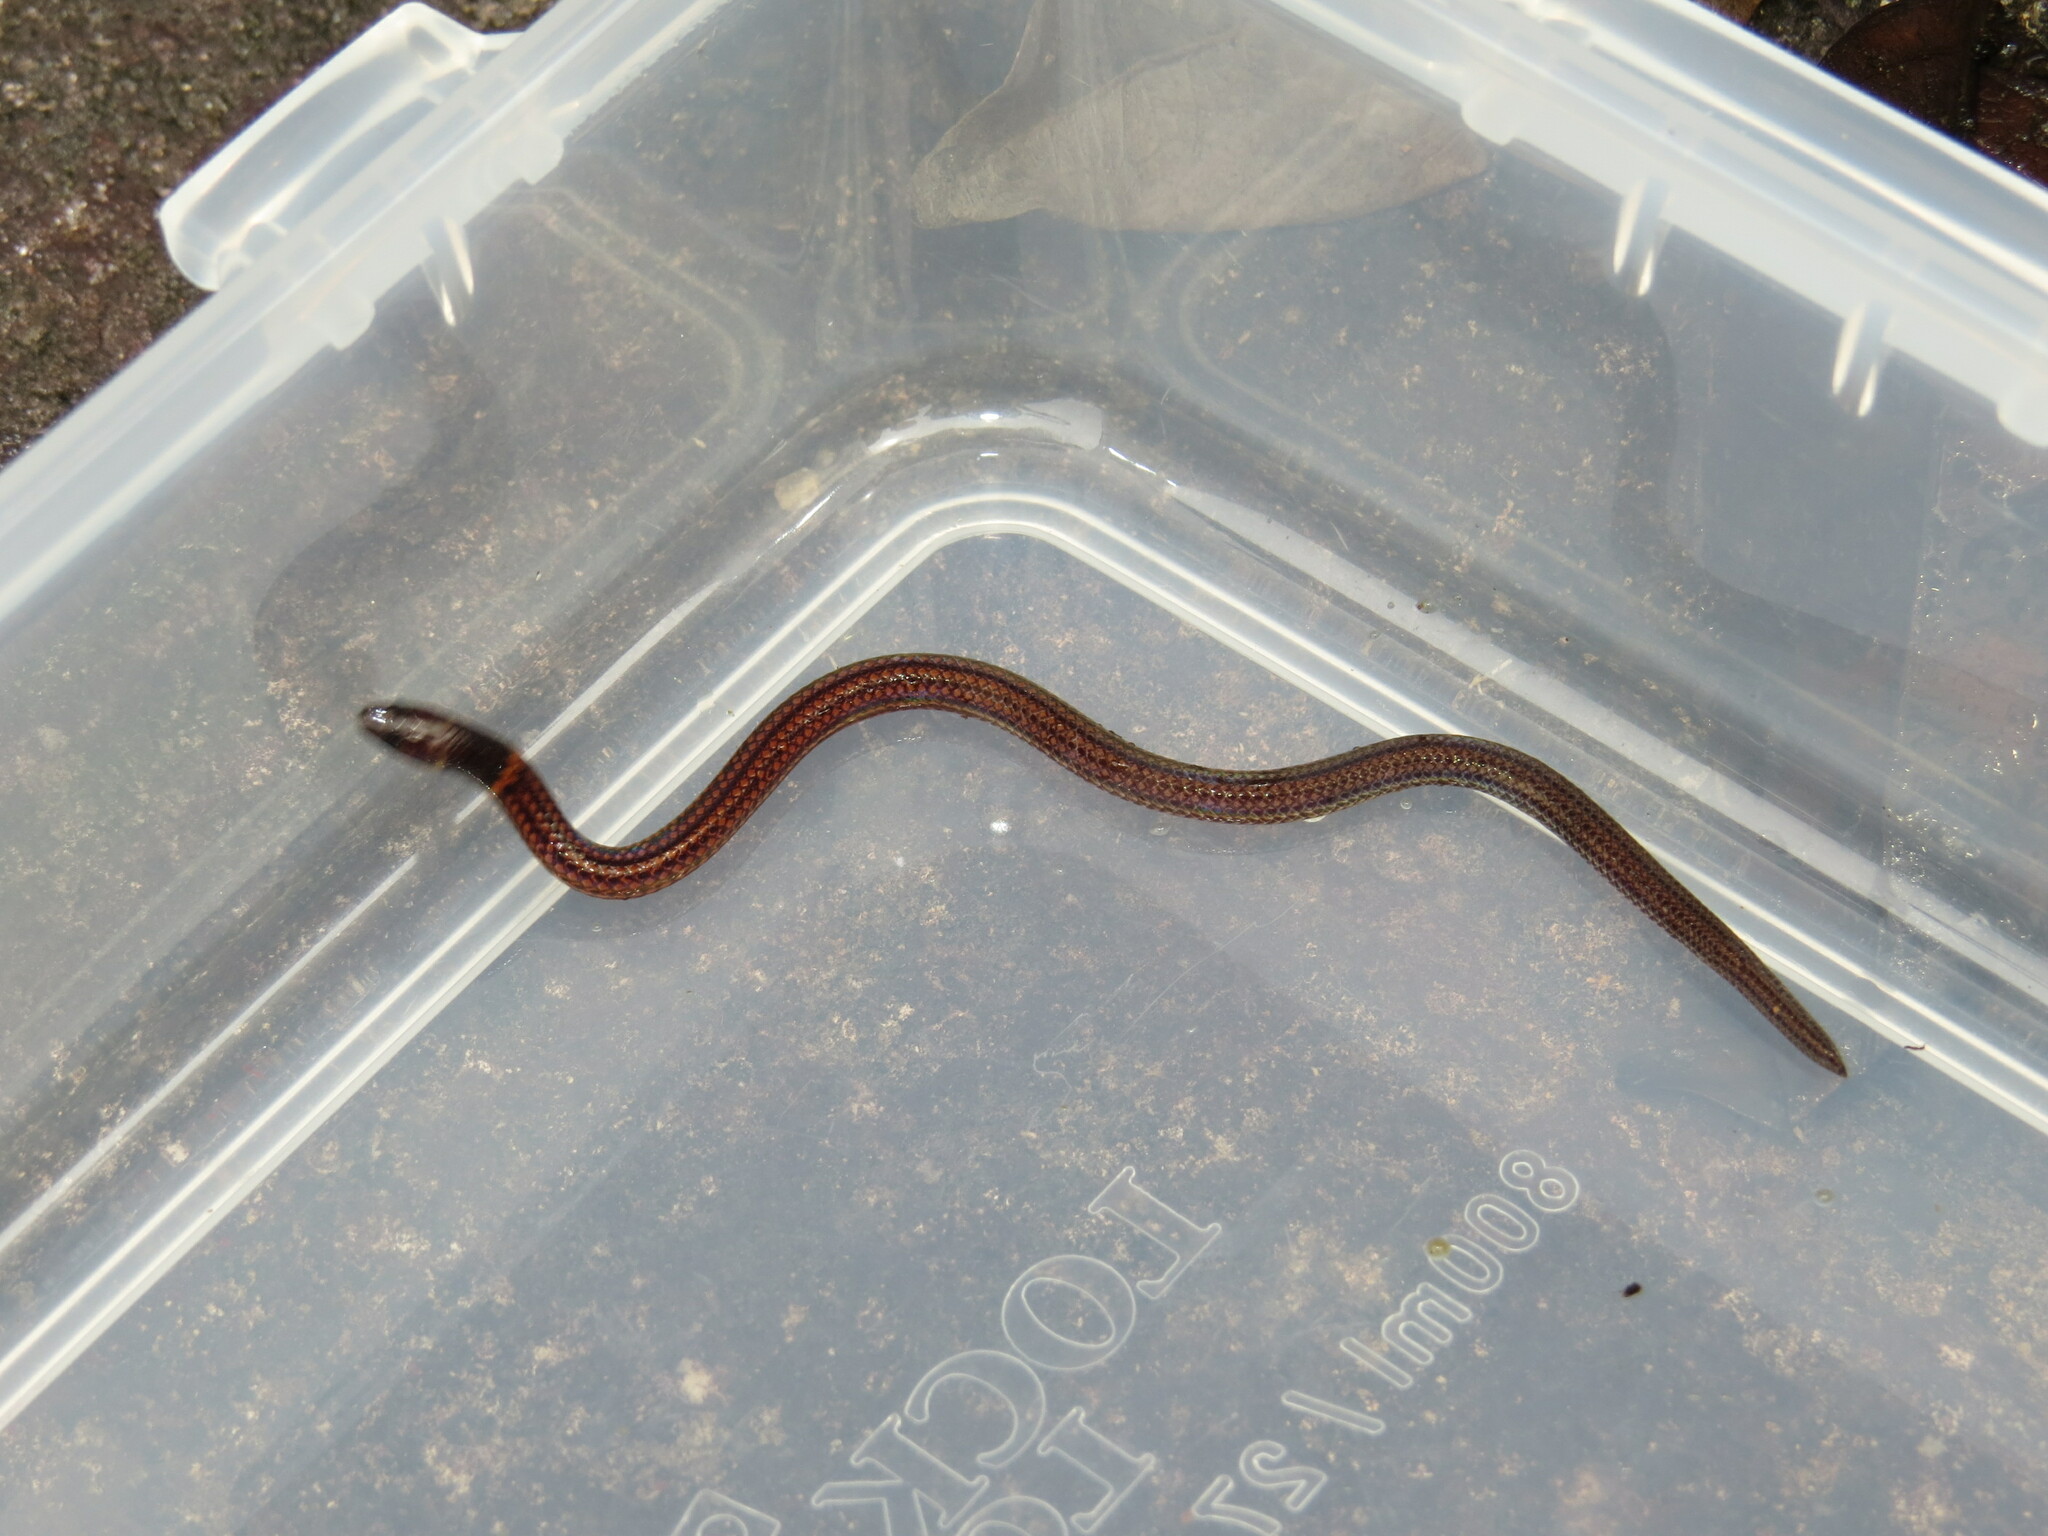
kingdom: Animalia
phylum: Chordata
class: Squamata
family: Colubridae
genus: Calamaria
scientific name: Calamaria pavimentata
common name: Collared reed snake
